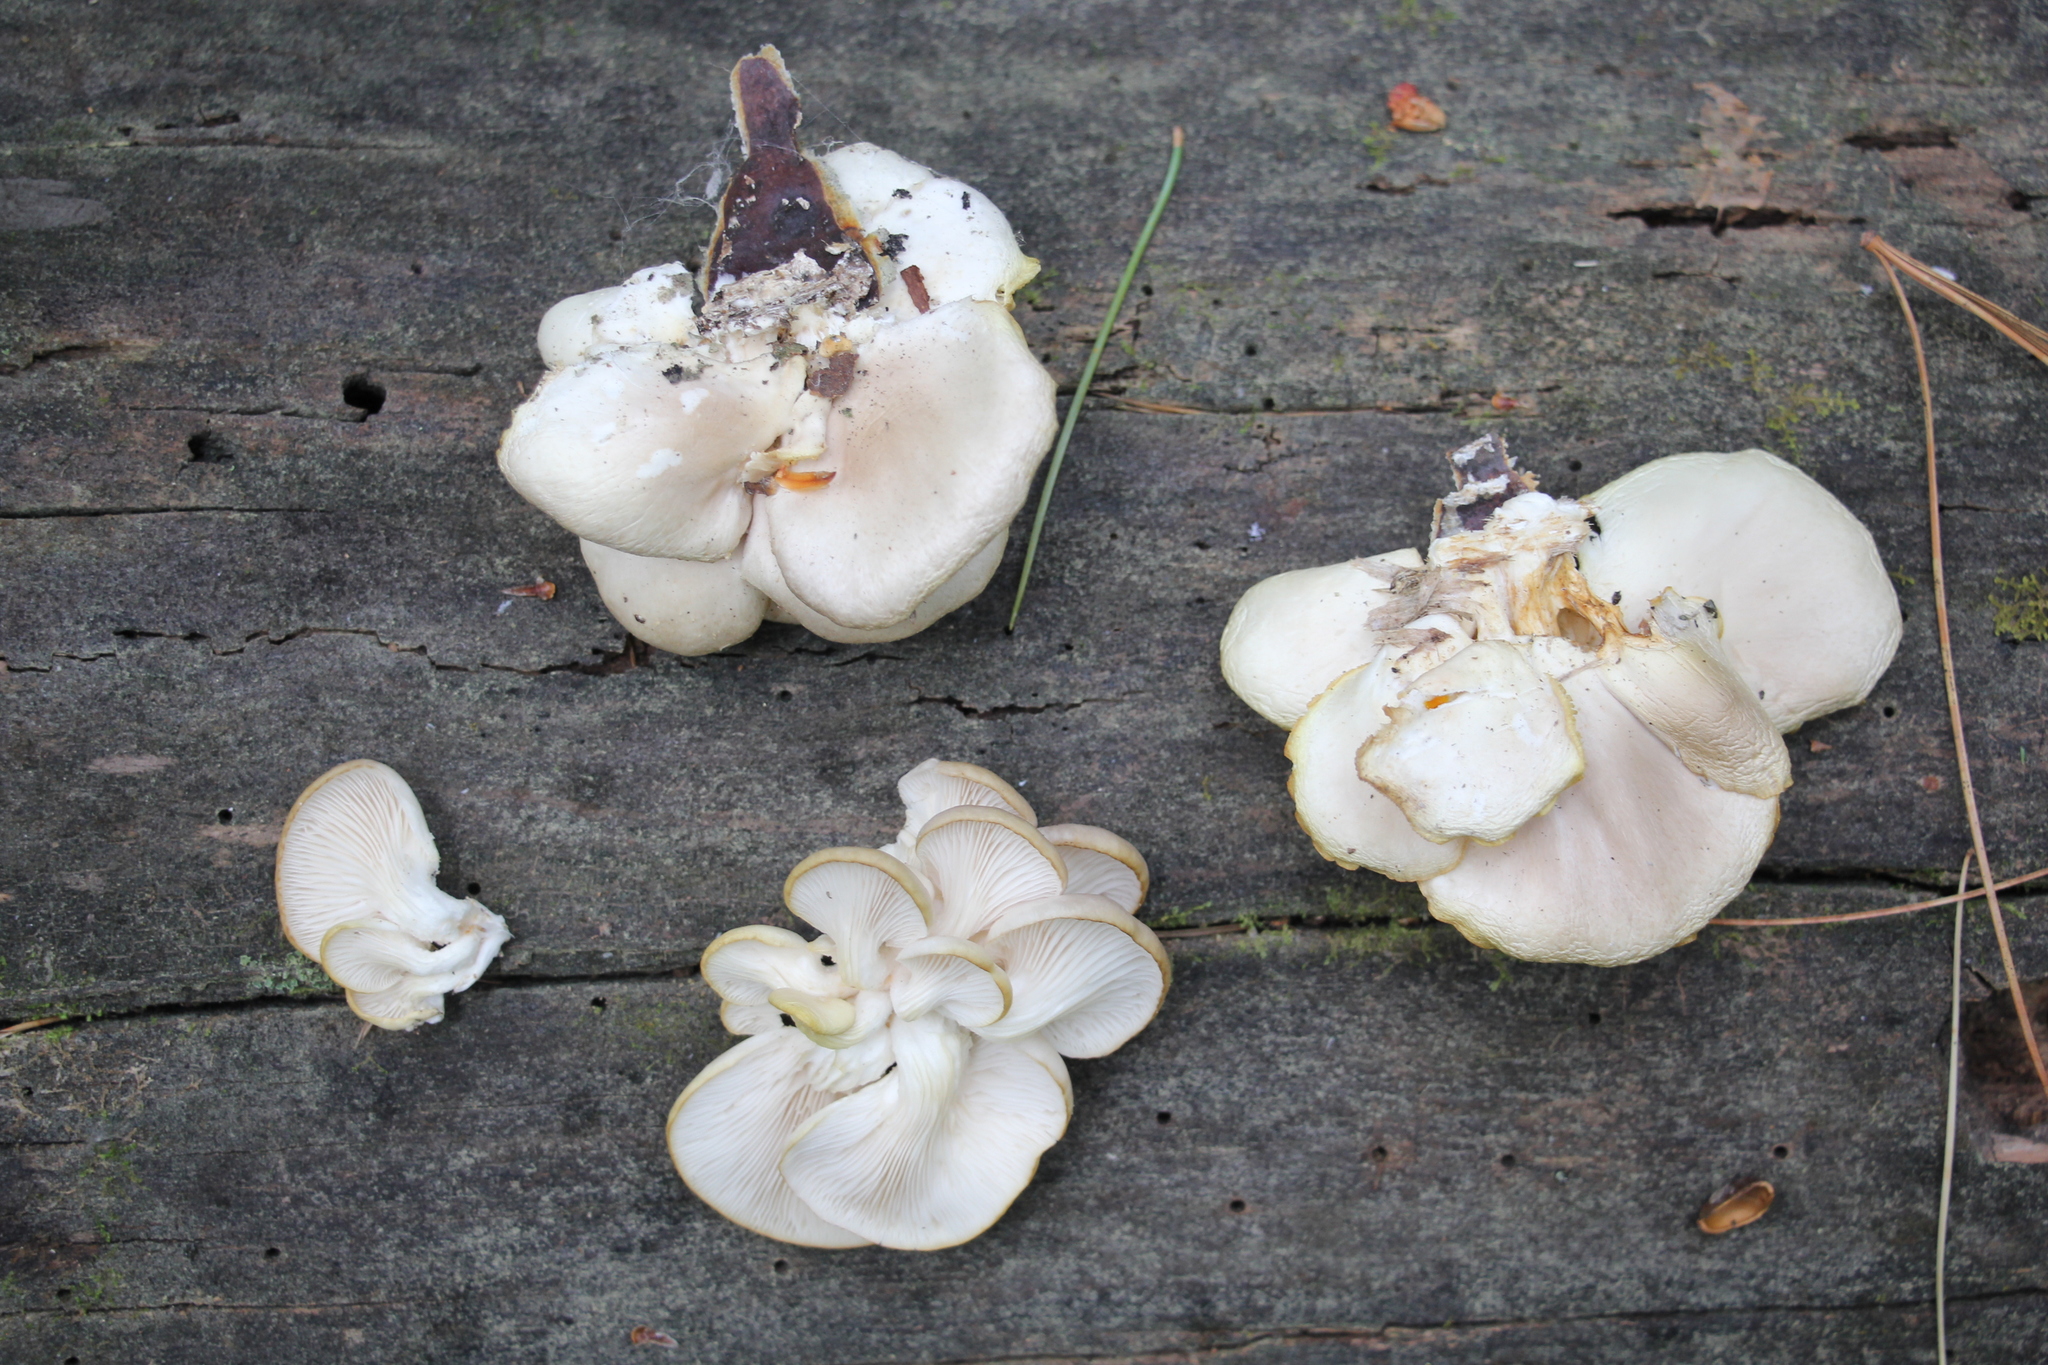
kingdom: Fungi
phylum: Basidiomycota
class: Agaricomycetes
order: Agaricales
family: Pleurotaceae
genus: Pleurotus
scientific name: Pleurotus pulmonarius
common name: Pale oyster
